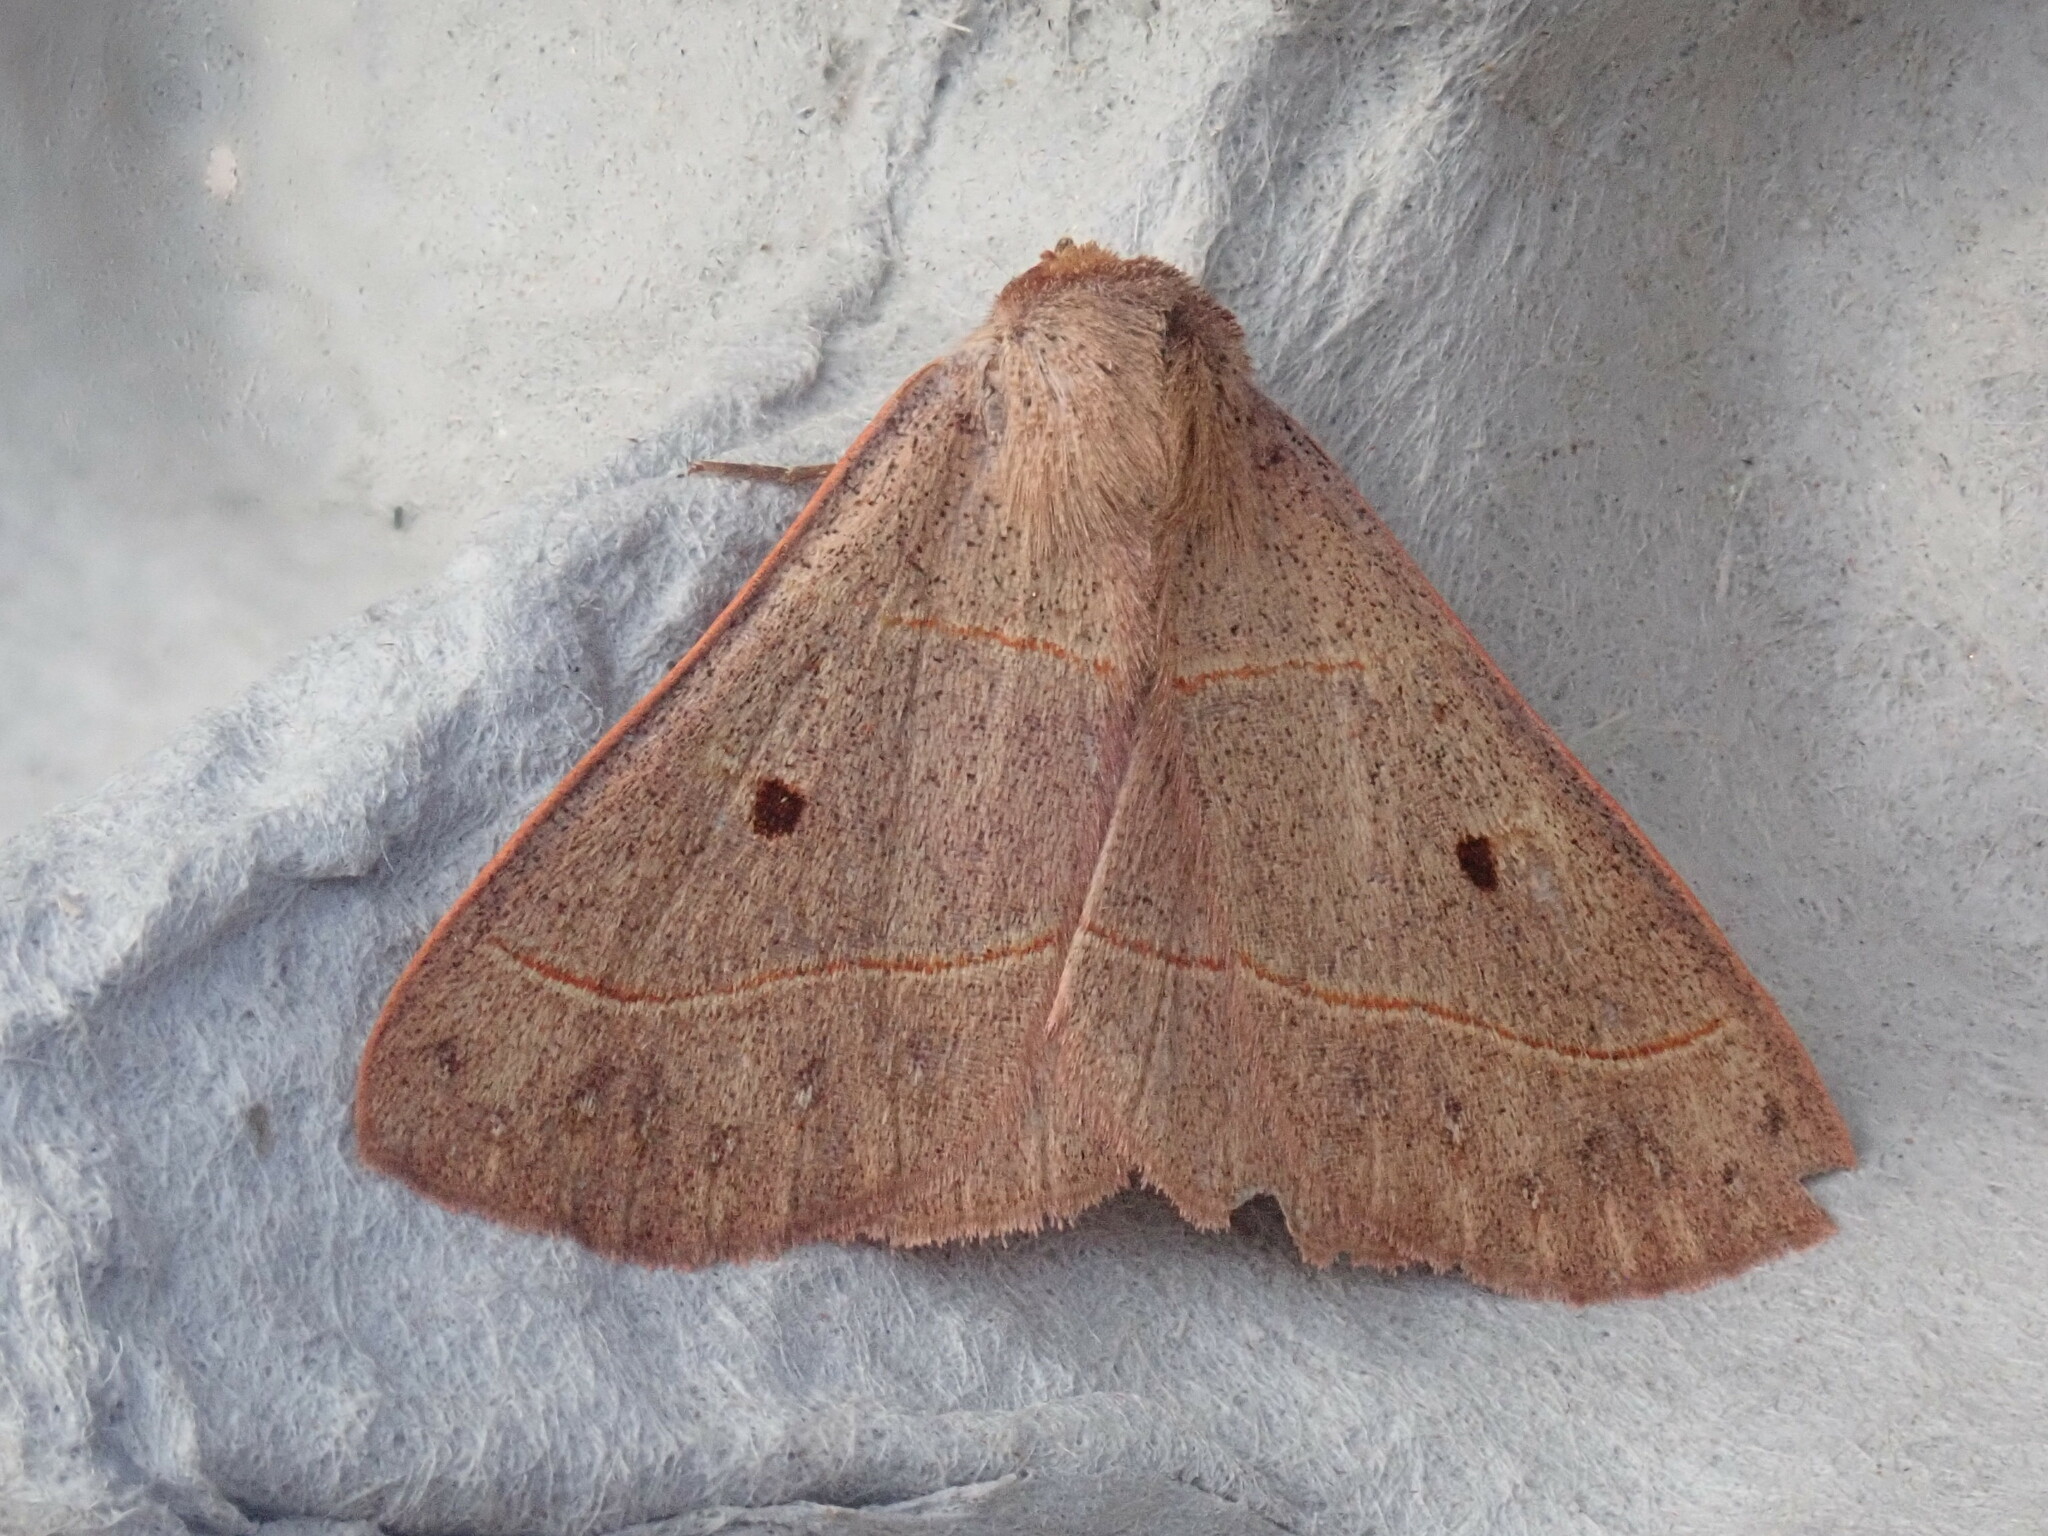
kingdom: Animalia
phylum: Arthropoda
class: Insecta
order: Lepidoptera
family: Erebidae
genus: Panopoda
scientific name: Panopoda rufimargo
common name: Red-lined panopoda moth
